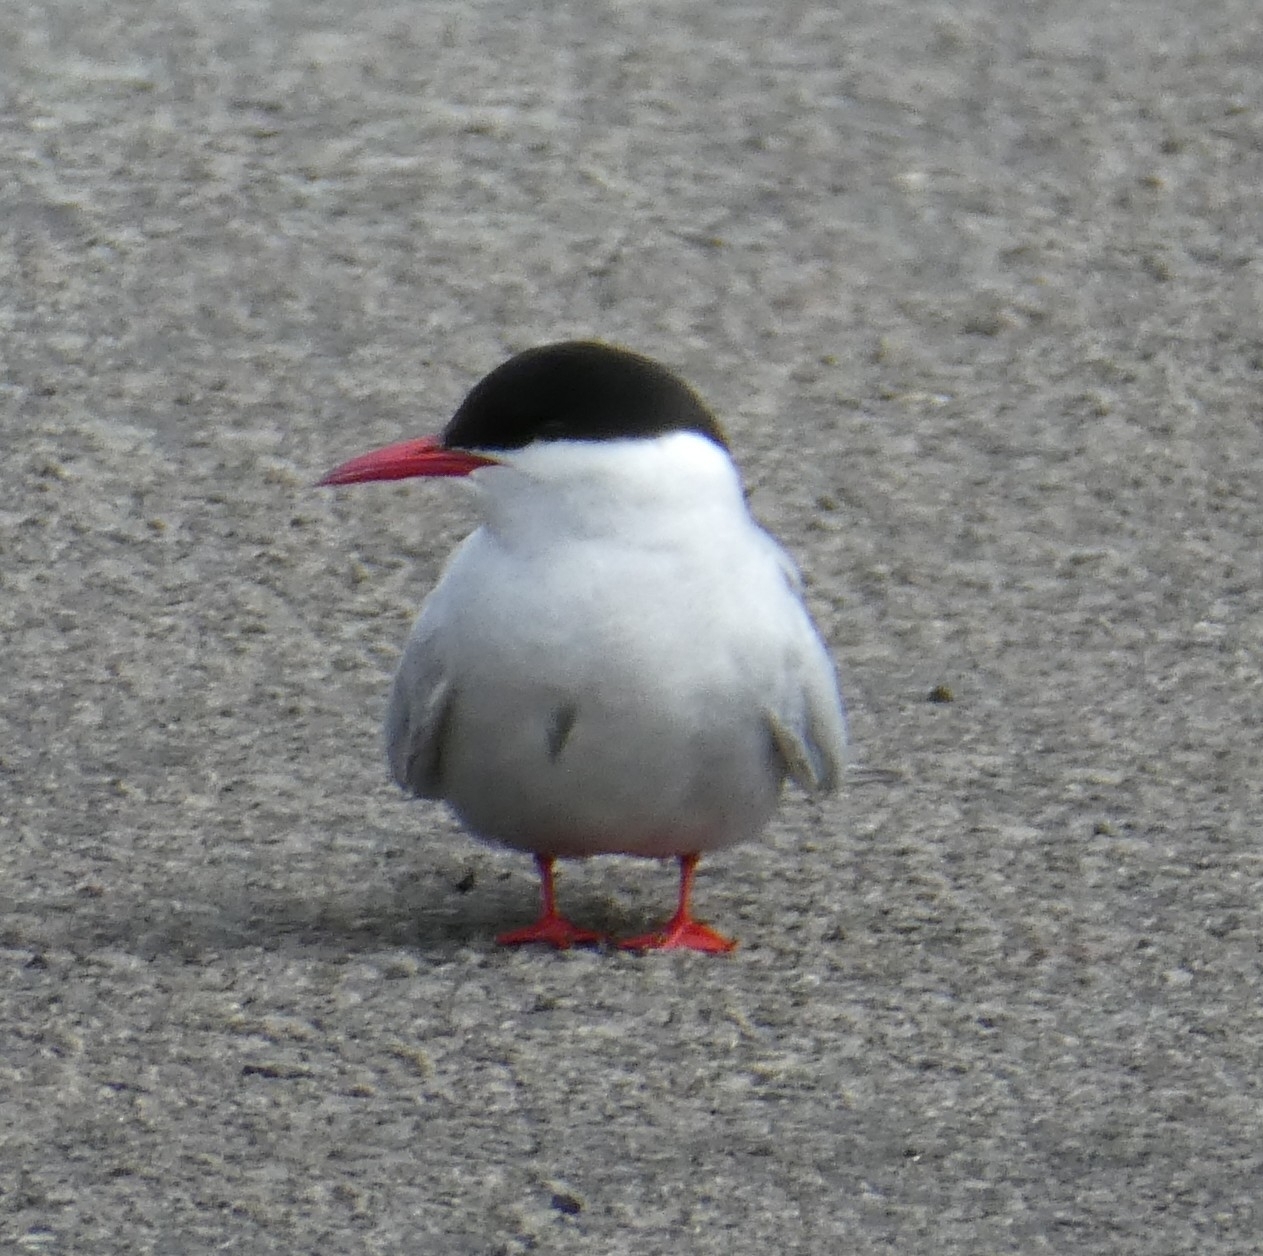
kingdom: Animalia
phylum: Chordata
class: Aves
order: Charadriiformes
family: Laridae
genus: Sterna
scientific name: Sterna paradisaea
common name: Arctic tern
